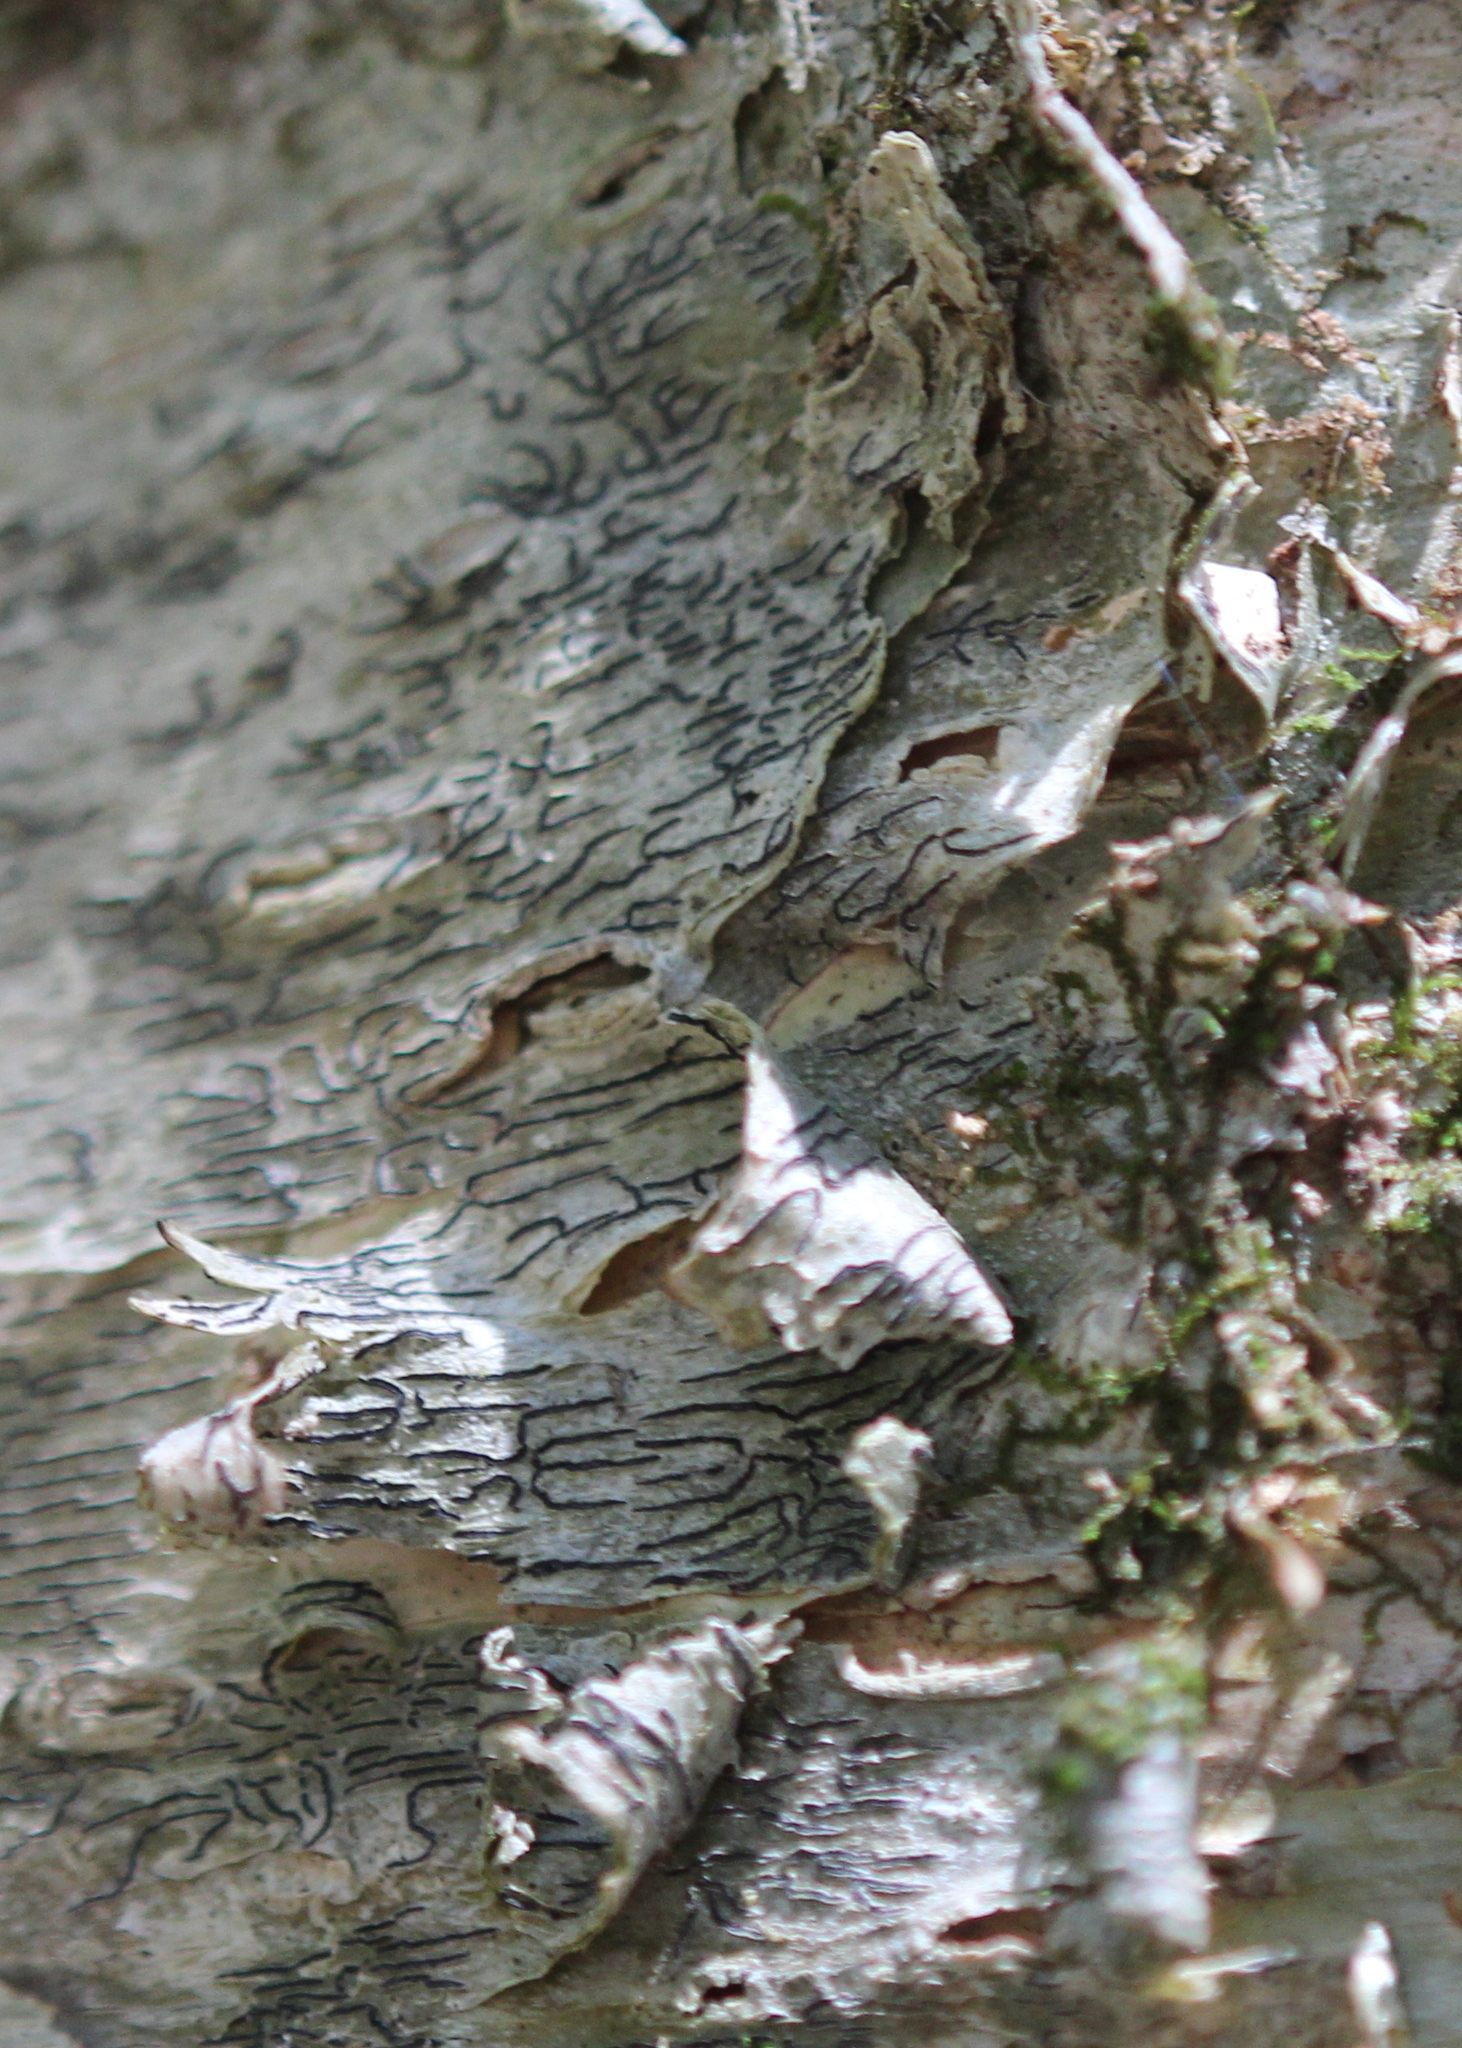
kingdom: Fungi
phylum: Ascomycota
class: Lecanoromycetes
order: Ostropales
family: Graphidaceae
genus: Graphis
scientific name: Graphis scripta
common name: Script lichen
